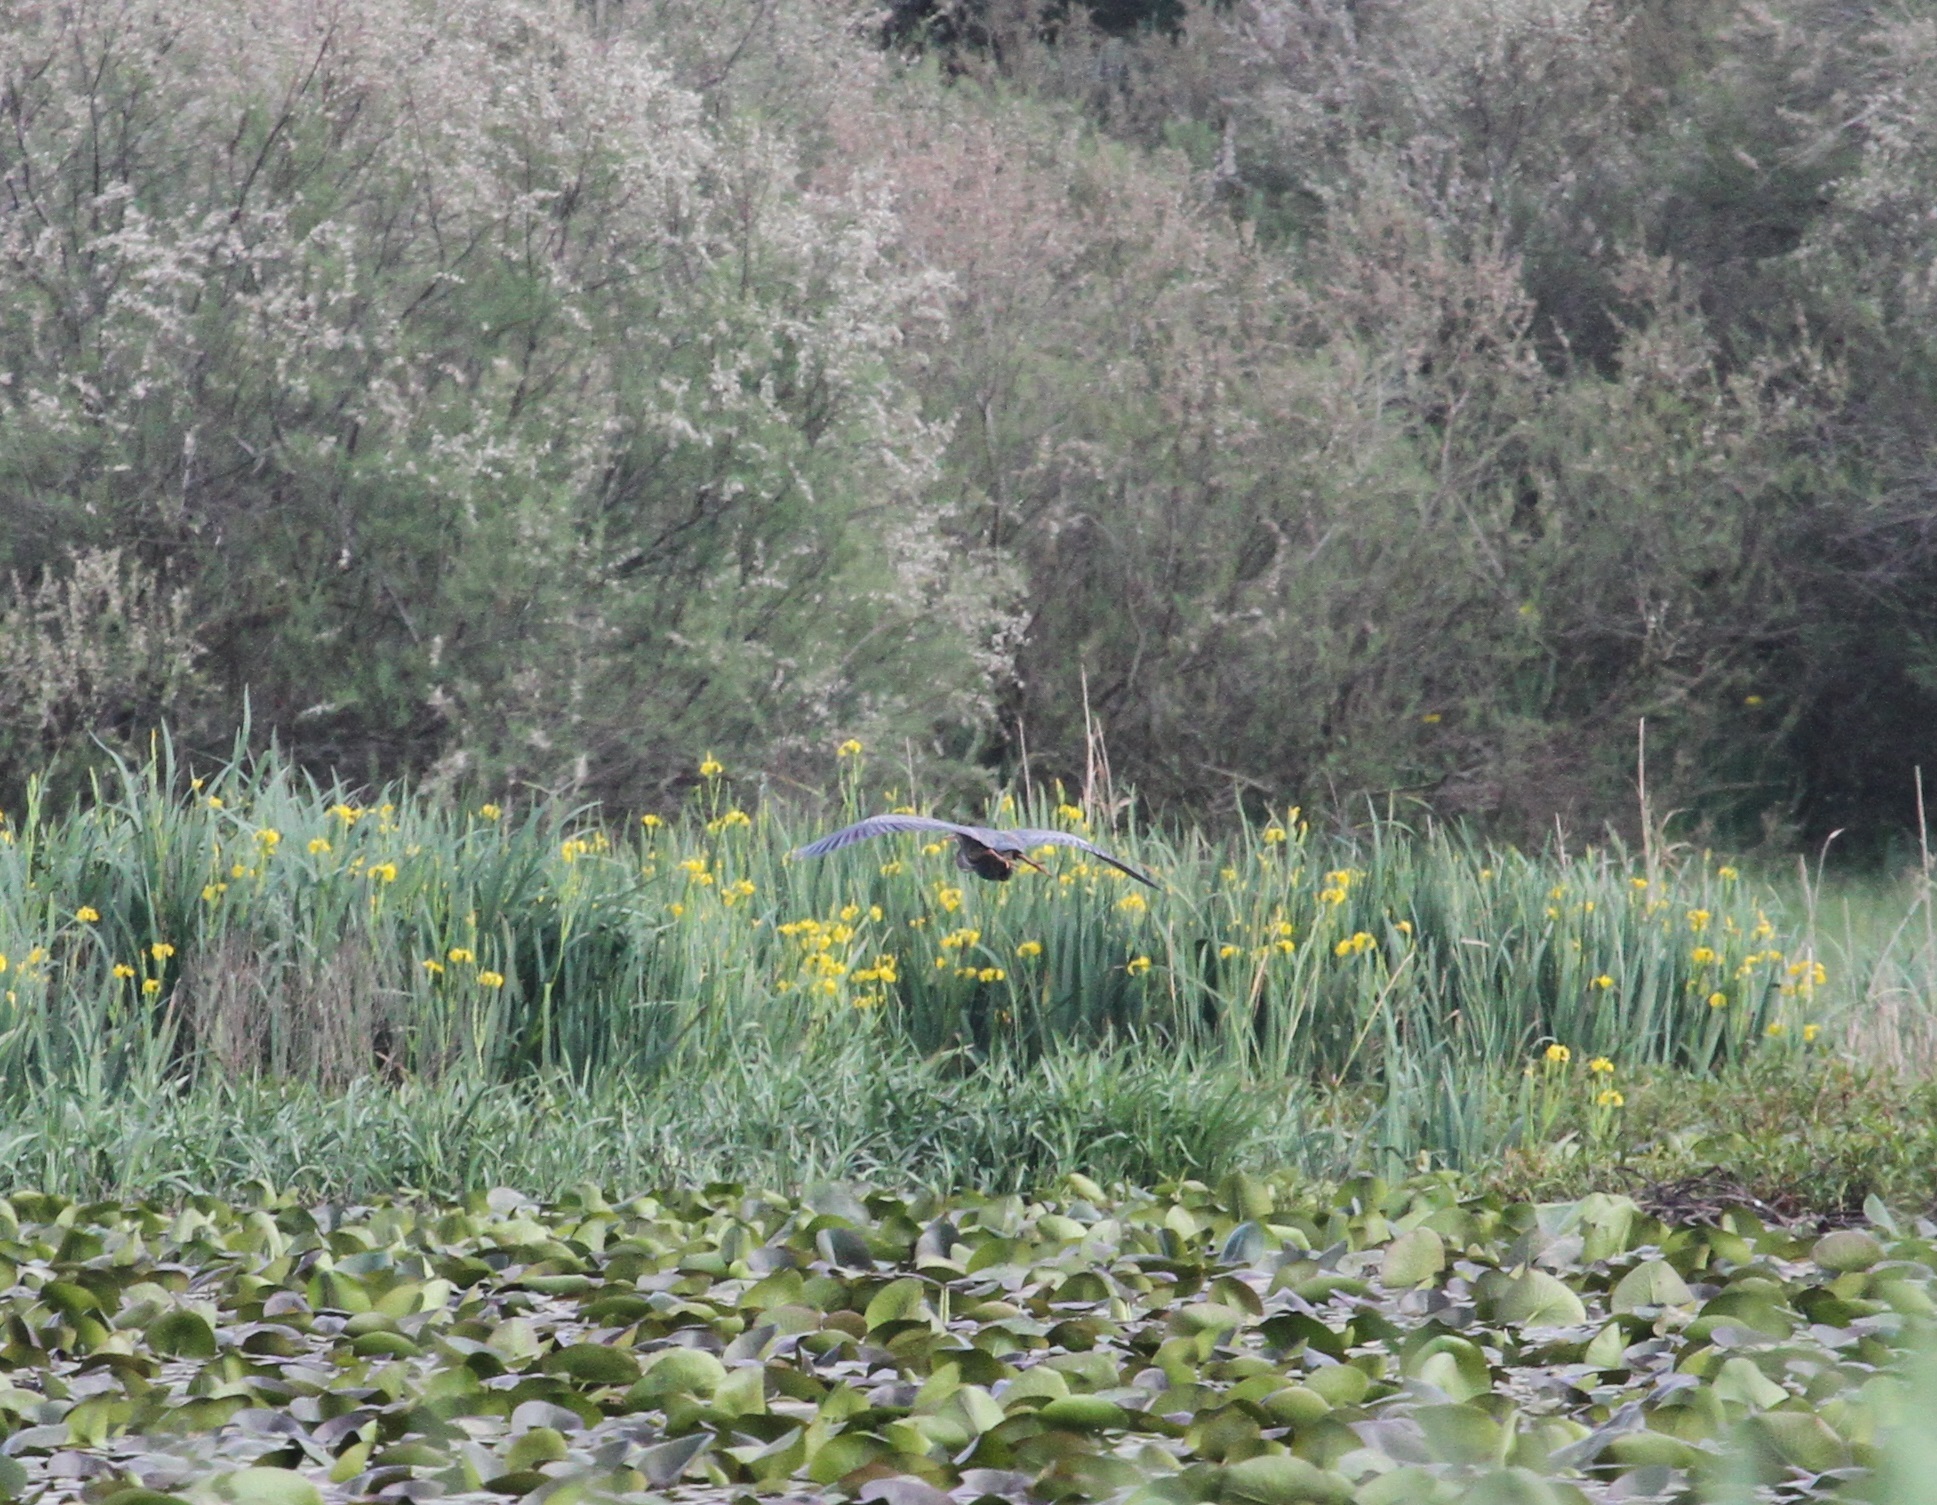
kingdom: Animalia
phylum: Chordata
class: Aves
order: Pelecaniformes
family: Ardeidae
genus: Ardea
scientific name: Ardea purpurea
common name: Purple heron
